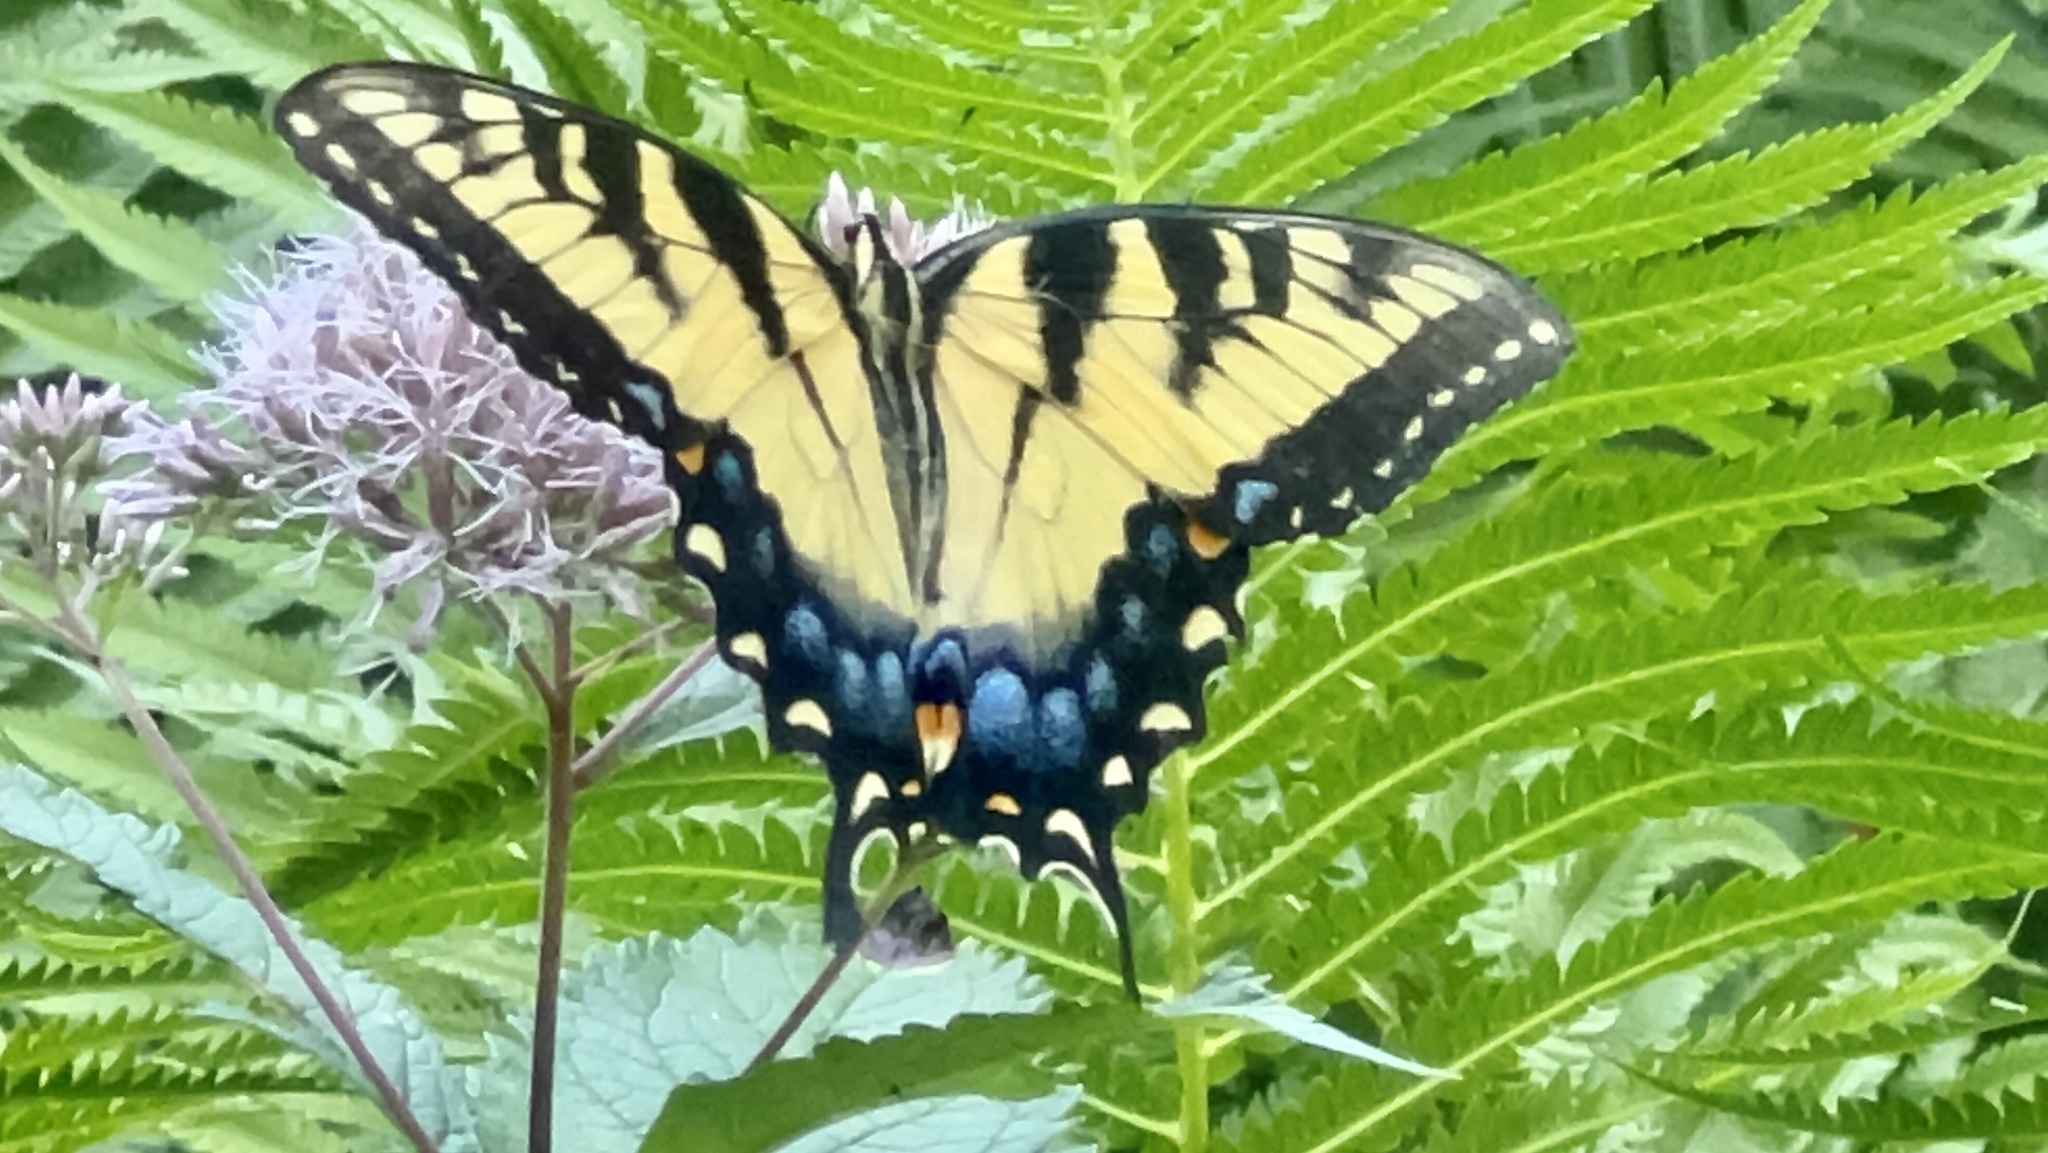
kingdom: Animalia
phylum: Arthropoda
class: Insecta
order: Lepidoptera
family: Papilionidae
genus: Papilio
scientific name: Papilio glaucus
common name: Tiger swallowtail
